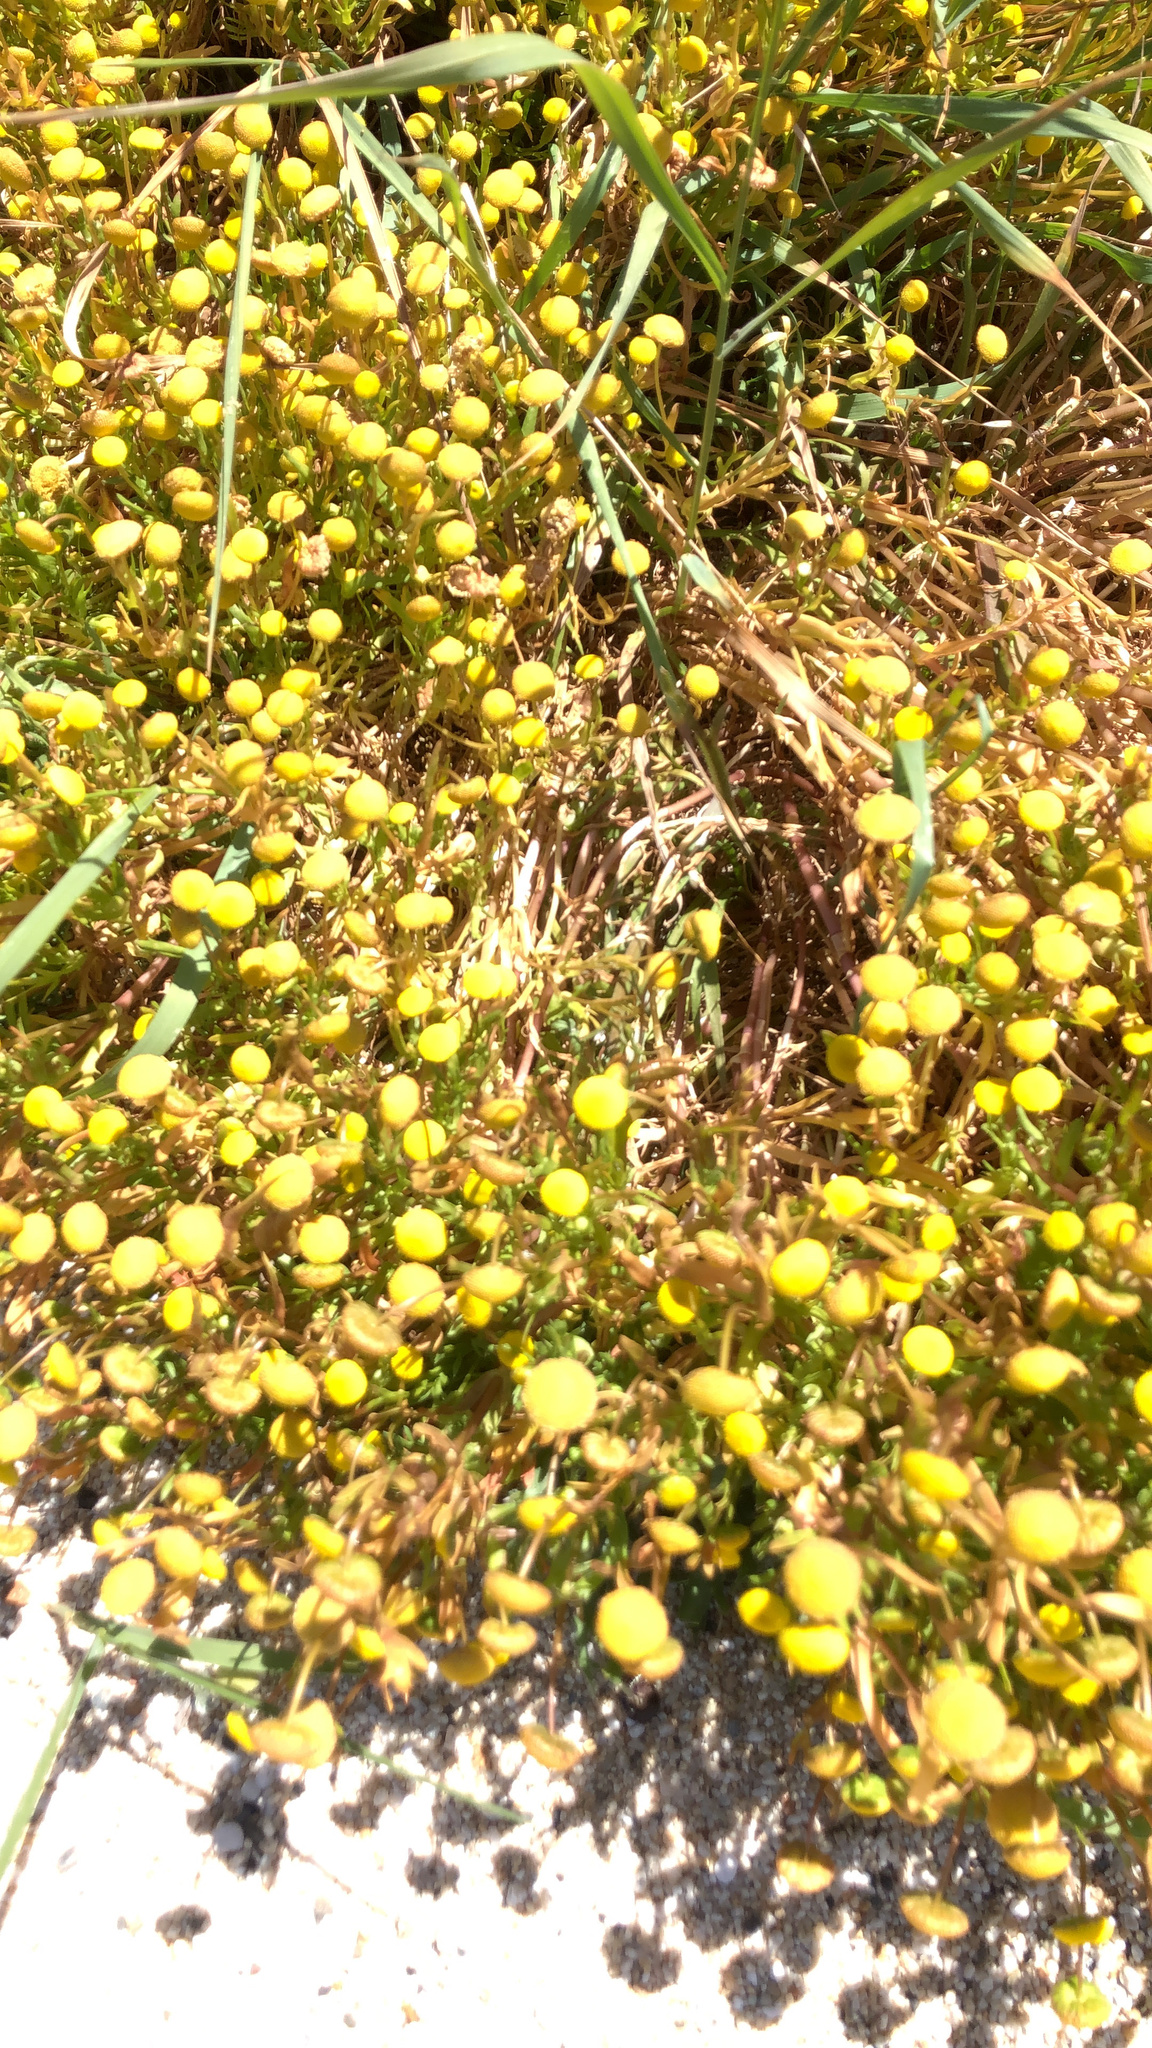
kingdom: Plantae
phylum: Tracheophyta
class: Magnoliopsida
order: Asterales
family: Asteraceae
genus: Cotula
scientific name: Cotula coronopifolia
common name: Buttonweed
